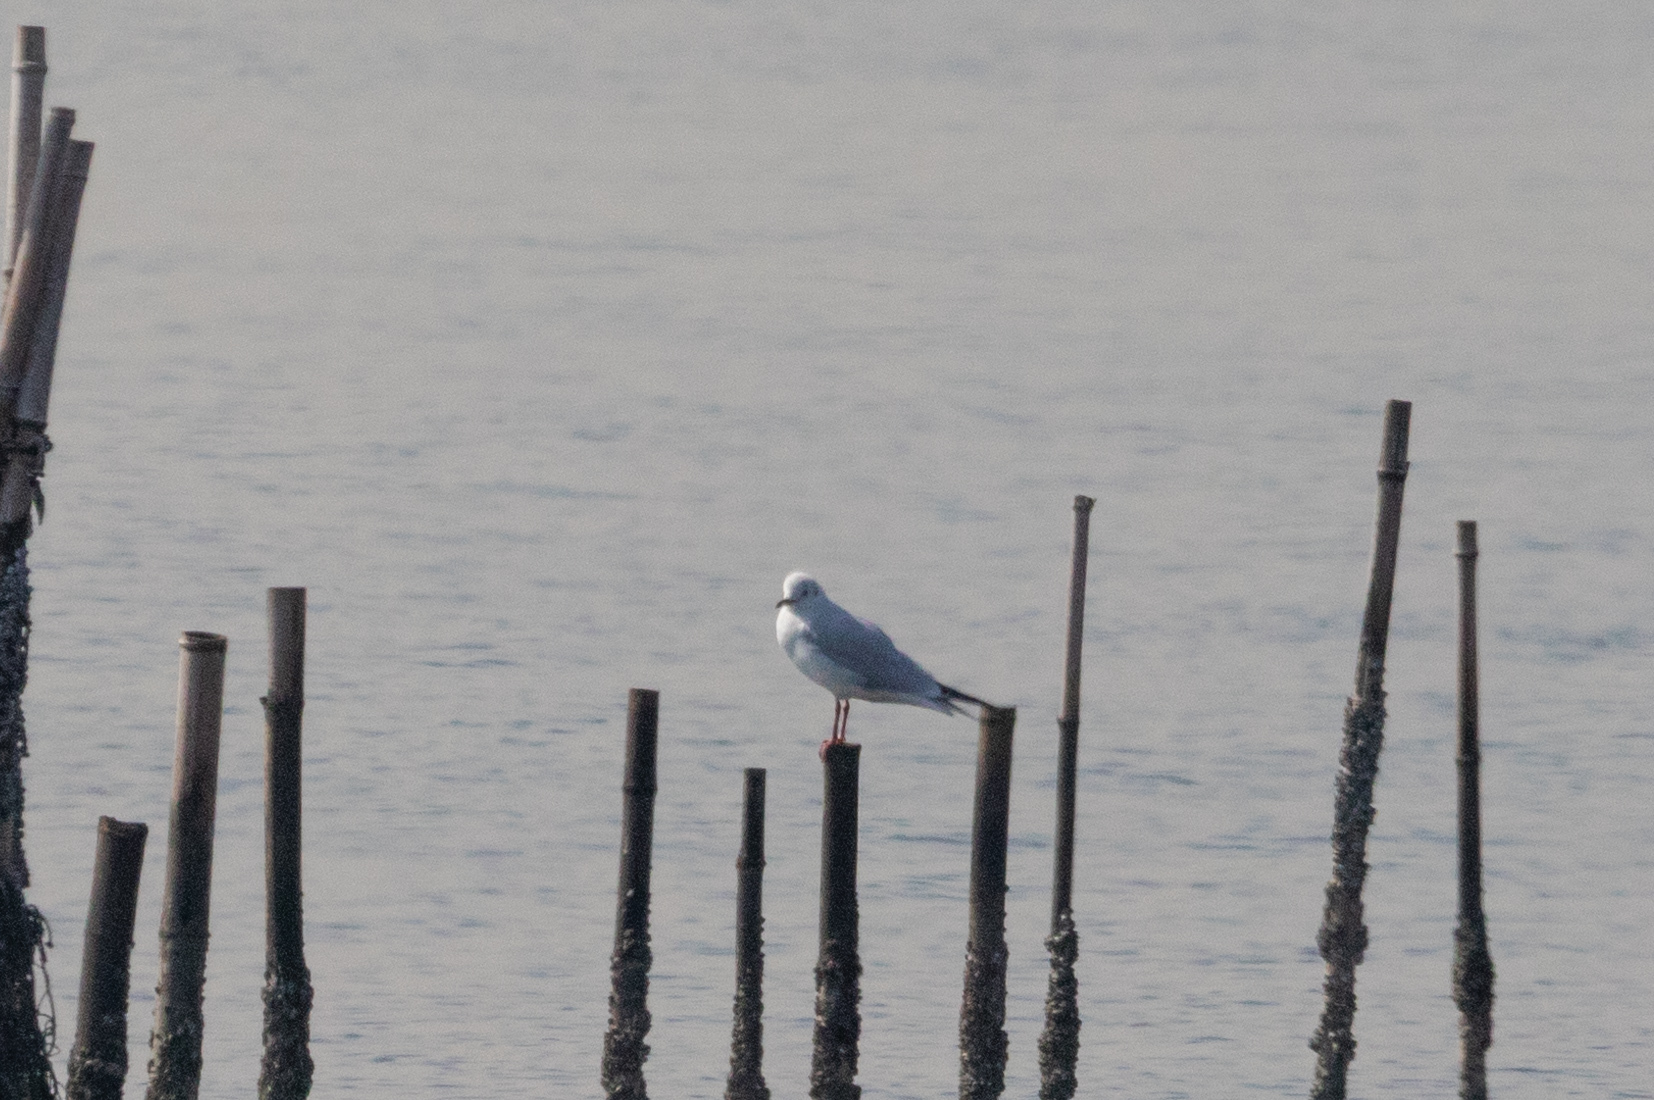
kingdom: Animalia
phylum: Chordata
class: Aves
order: Charadriiformes
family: Laridae
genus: Chroicocephalus
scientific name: Chroicocephalus ridibundus
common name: Black-headed gull
